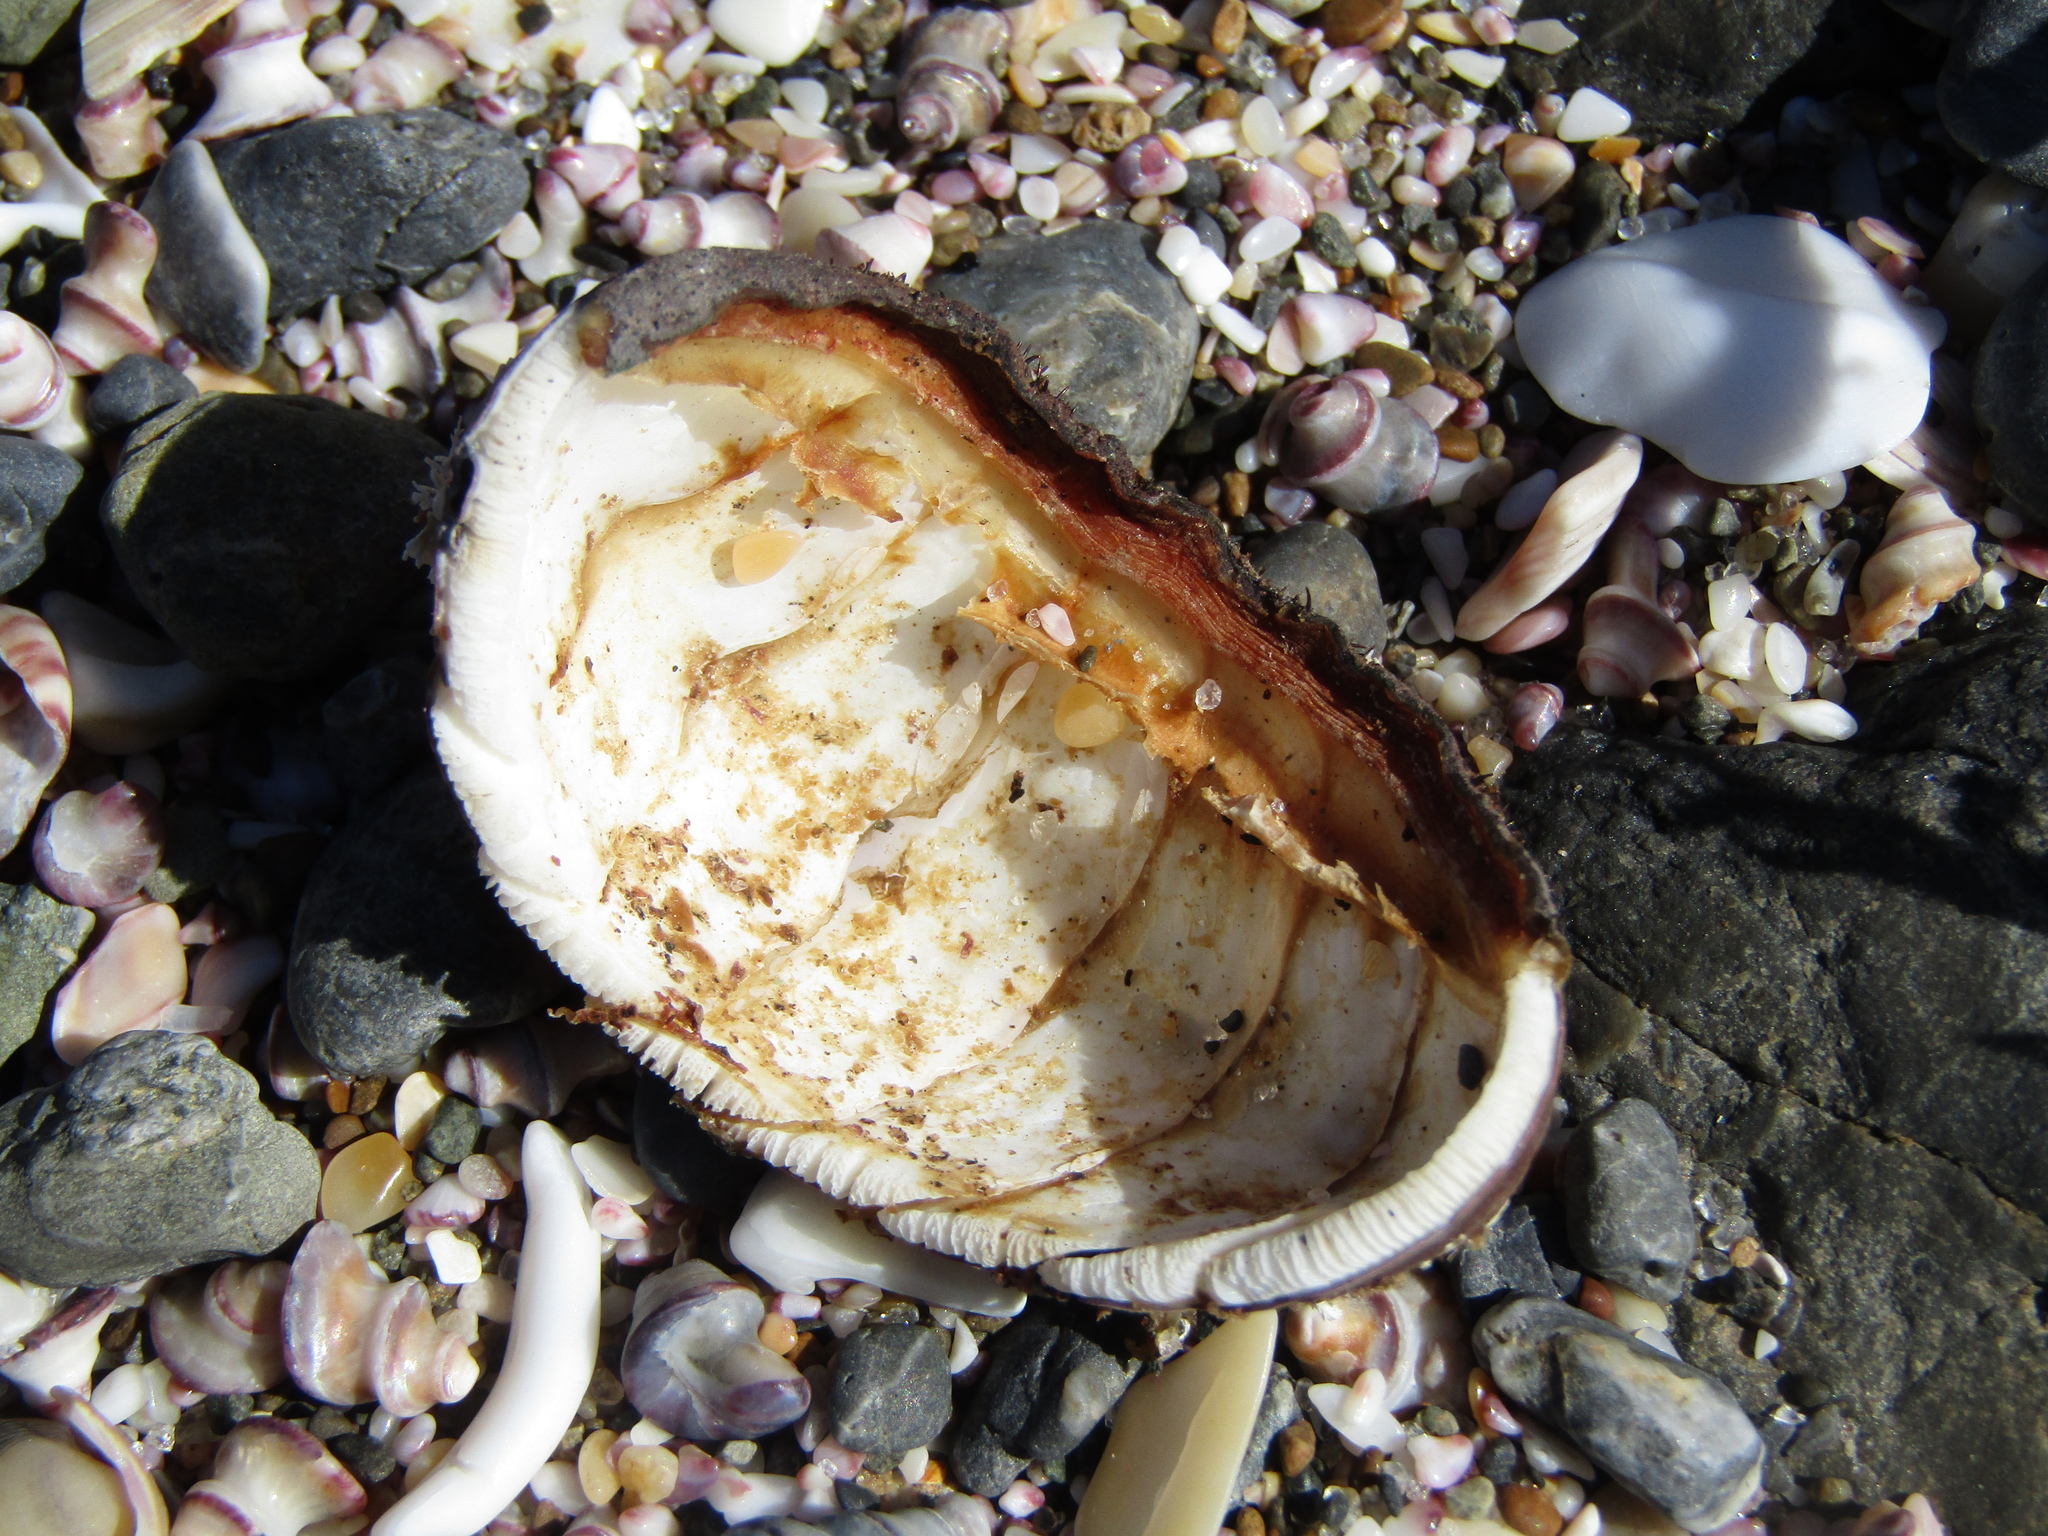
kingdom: Animalia
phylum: Mollusca
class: Polyplacophora
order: Callochitonida
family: Callochitonidae
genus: Eudoxochiton
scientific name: Eudoxochiton nobilis
